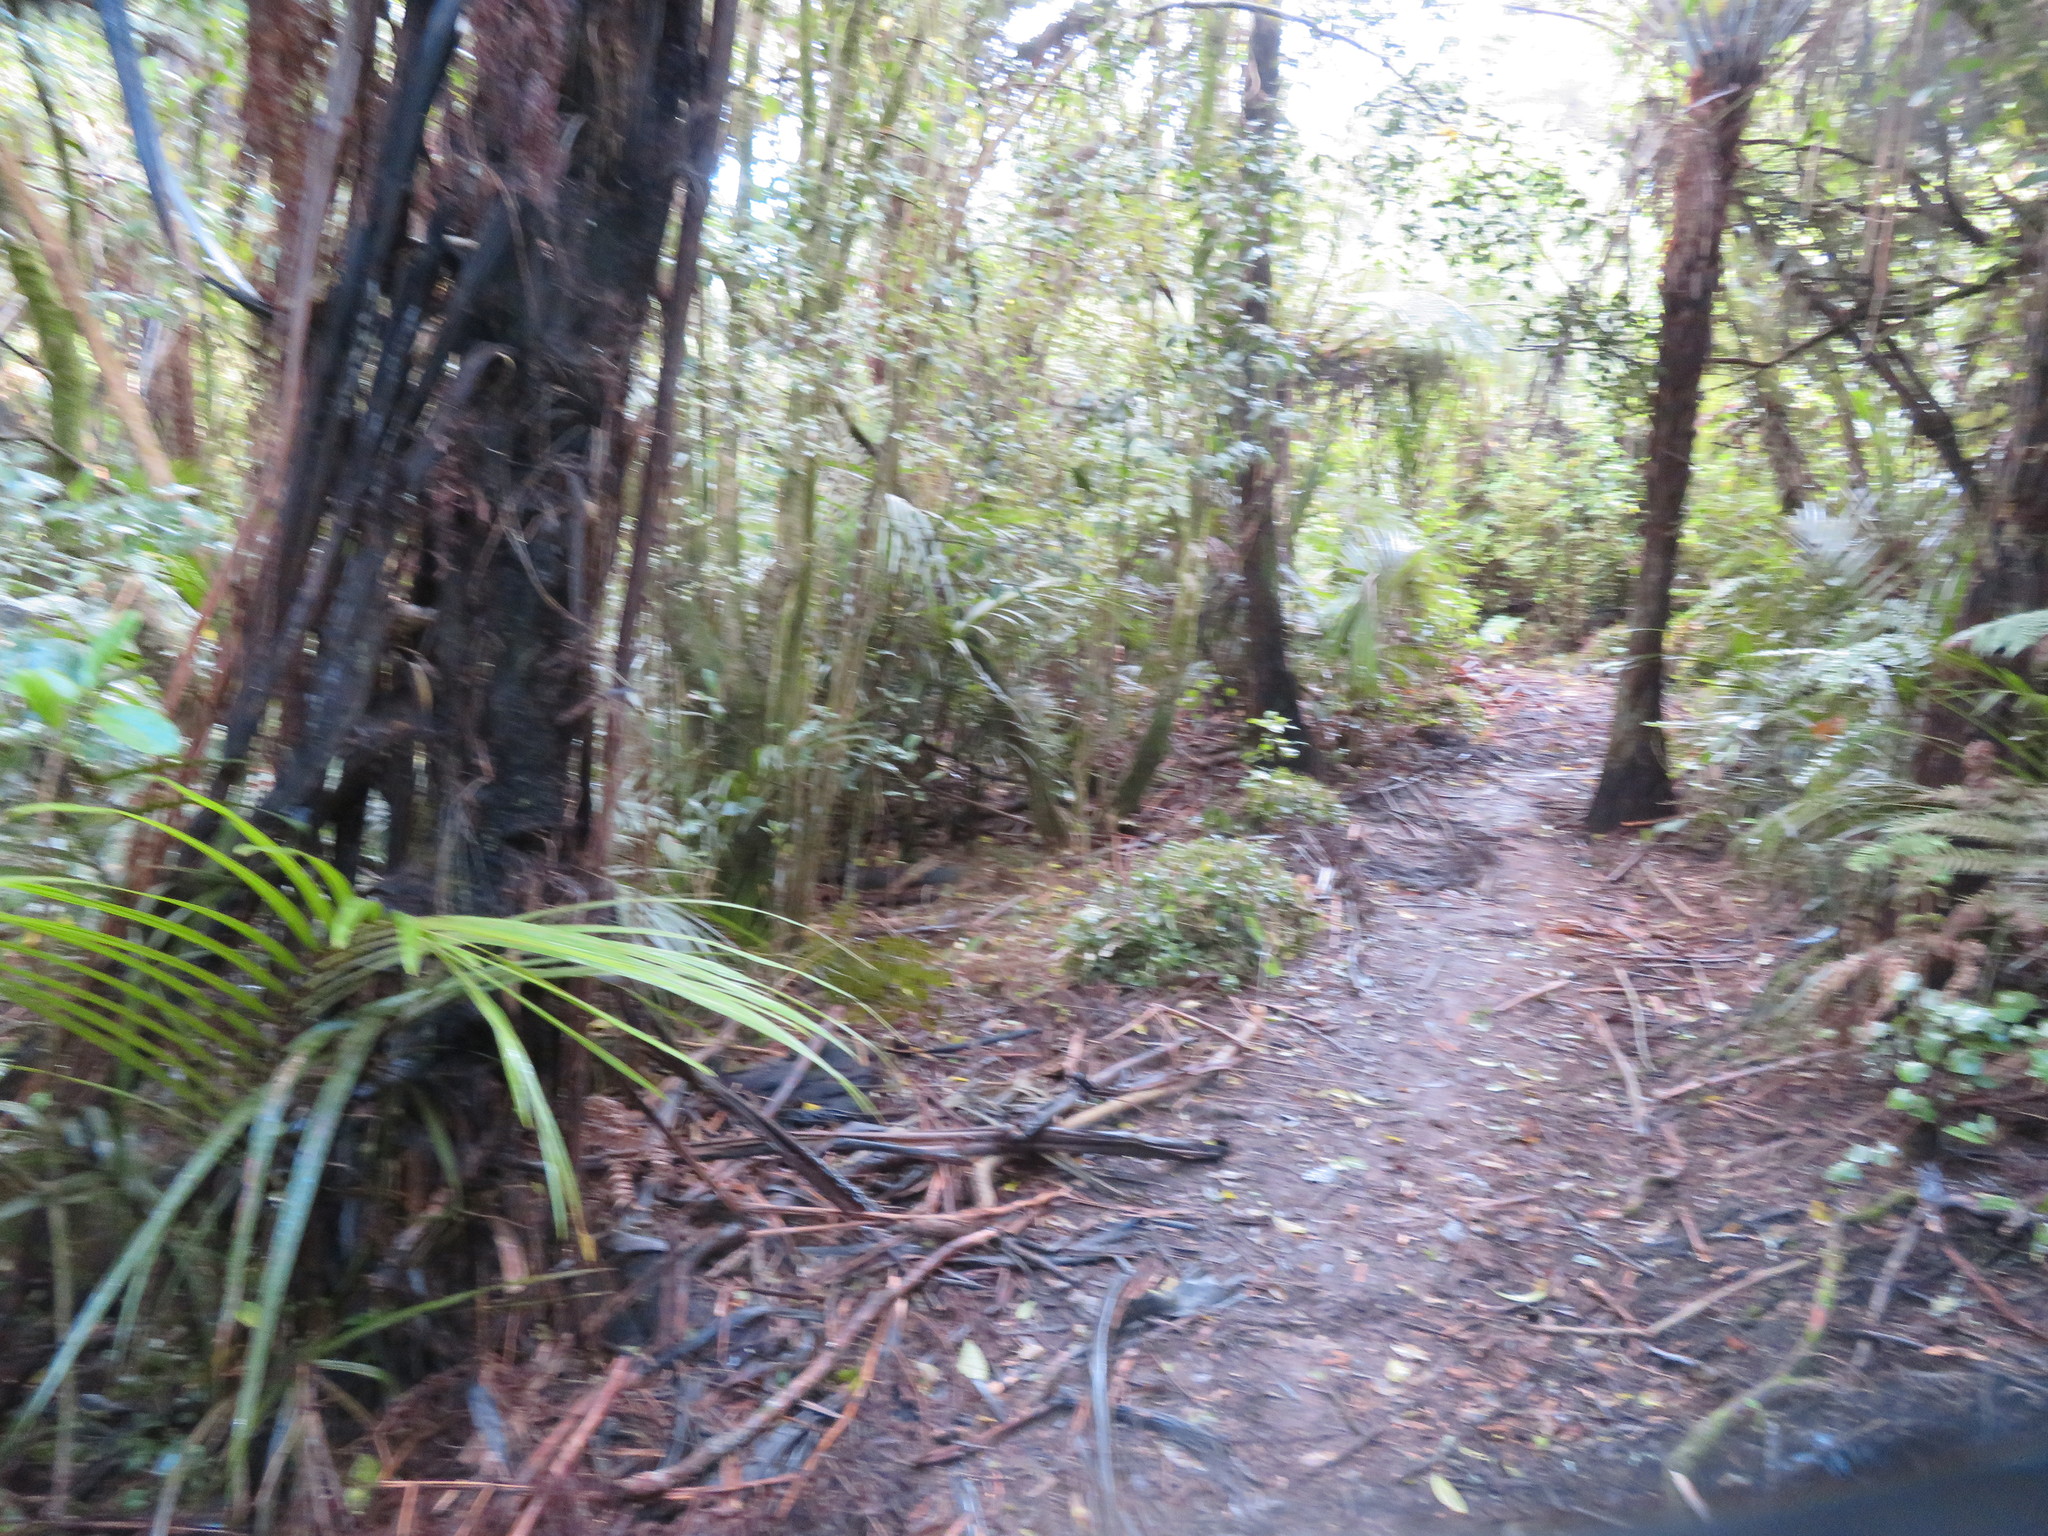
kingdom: Plantae
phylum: Tracheophyta
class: Polypodiopsida
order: Cyatheales
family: Cyatheaceae
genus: Sphaeropteris
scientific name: Sphaeropteris medullaris
